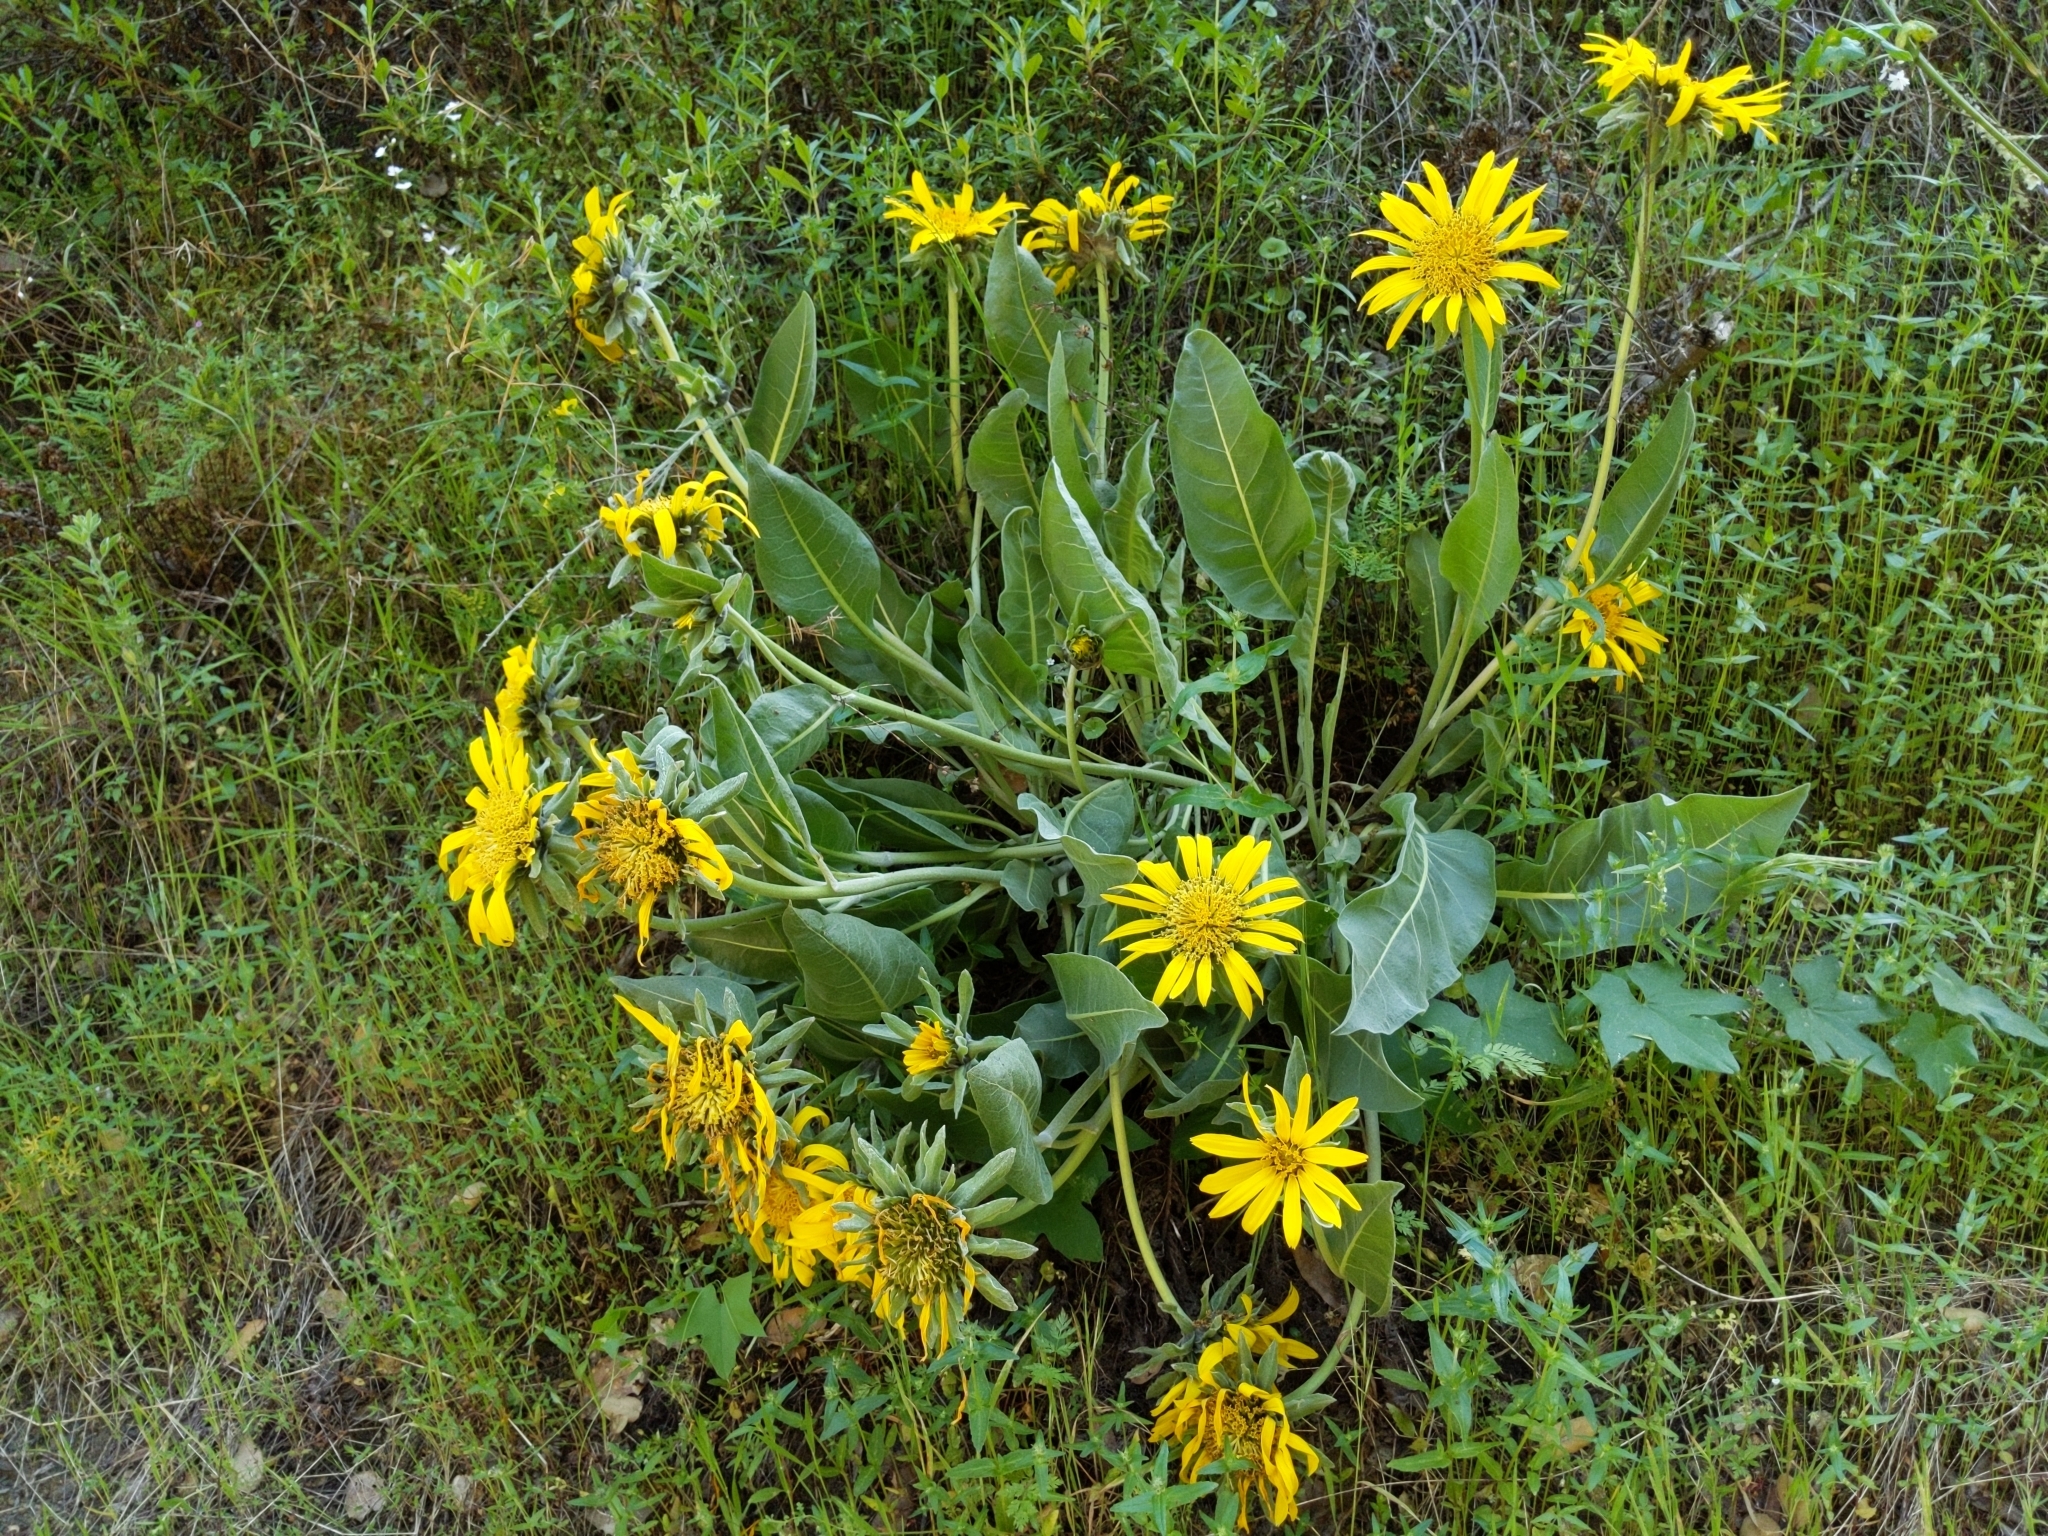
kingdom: Plantae
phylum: Tracheophyta
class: Magnoliopsida
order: Asterales
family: Asteraceae
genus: Wyethia
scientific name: Wyethia helenioides
